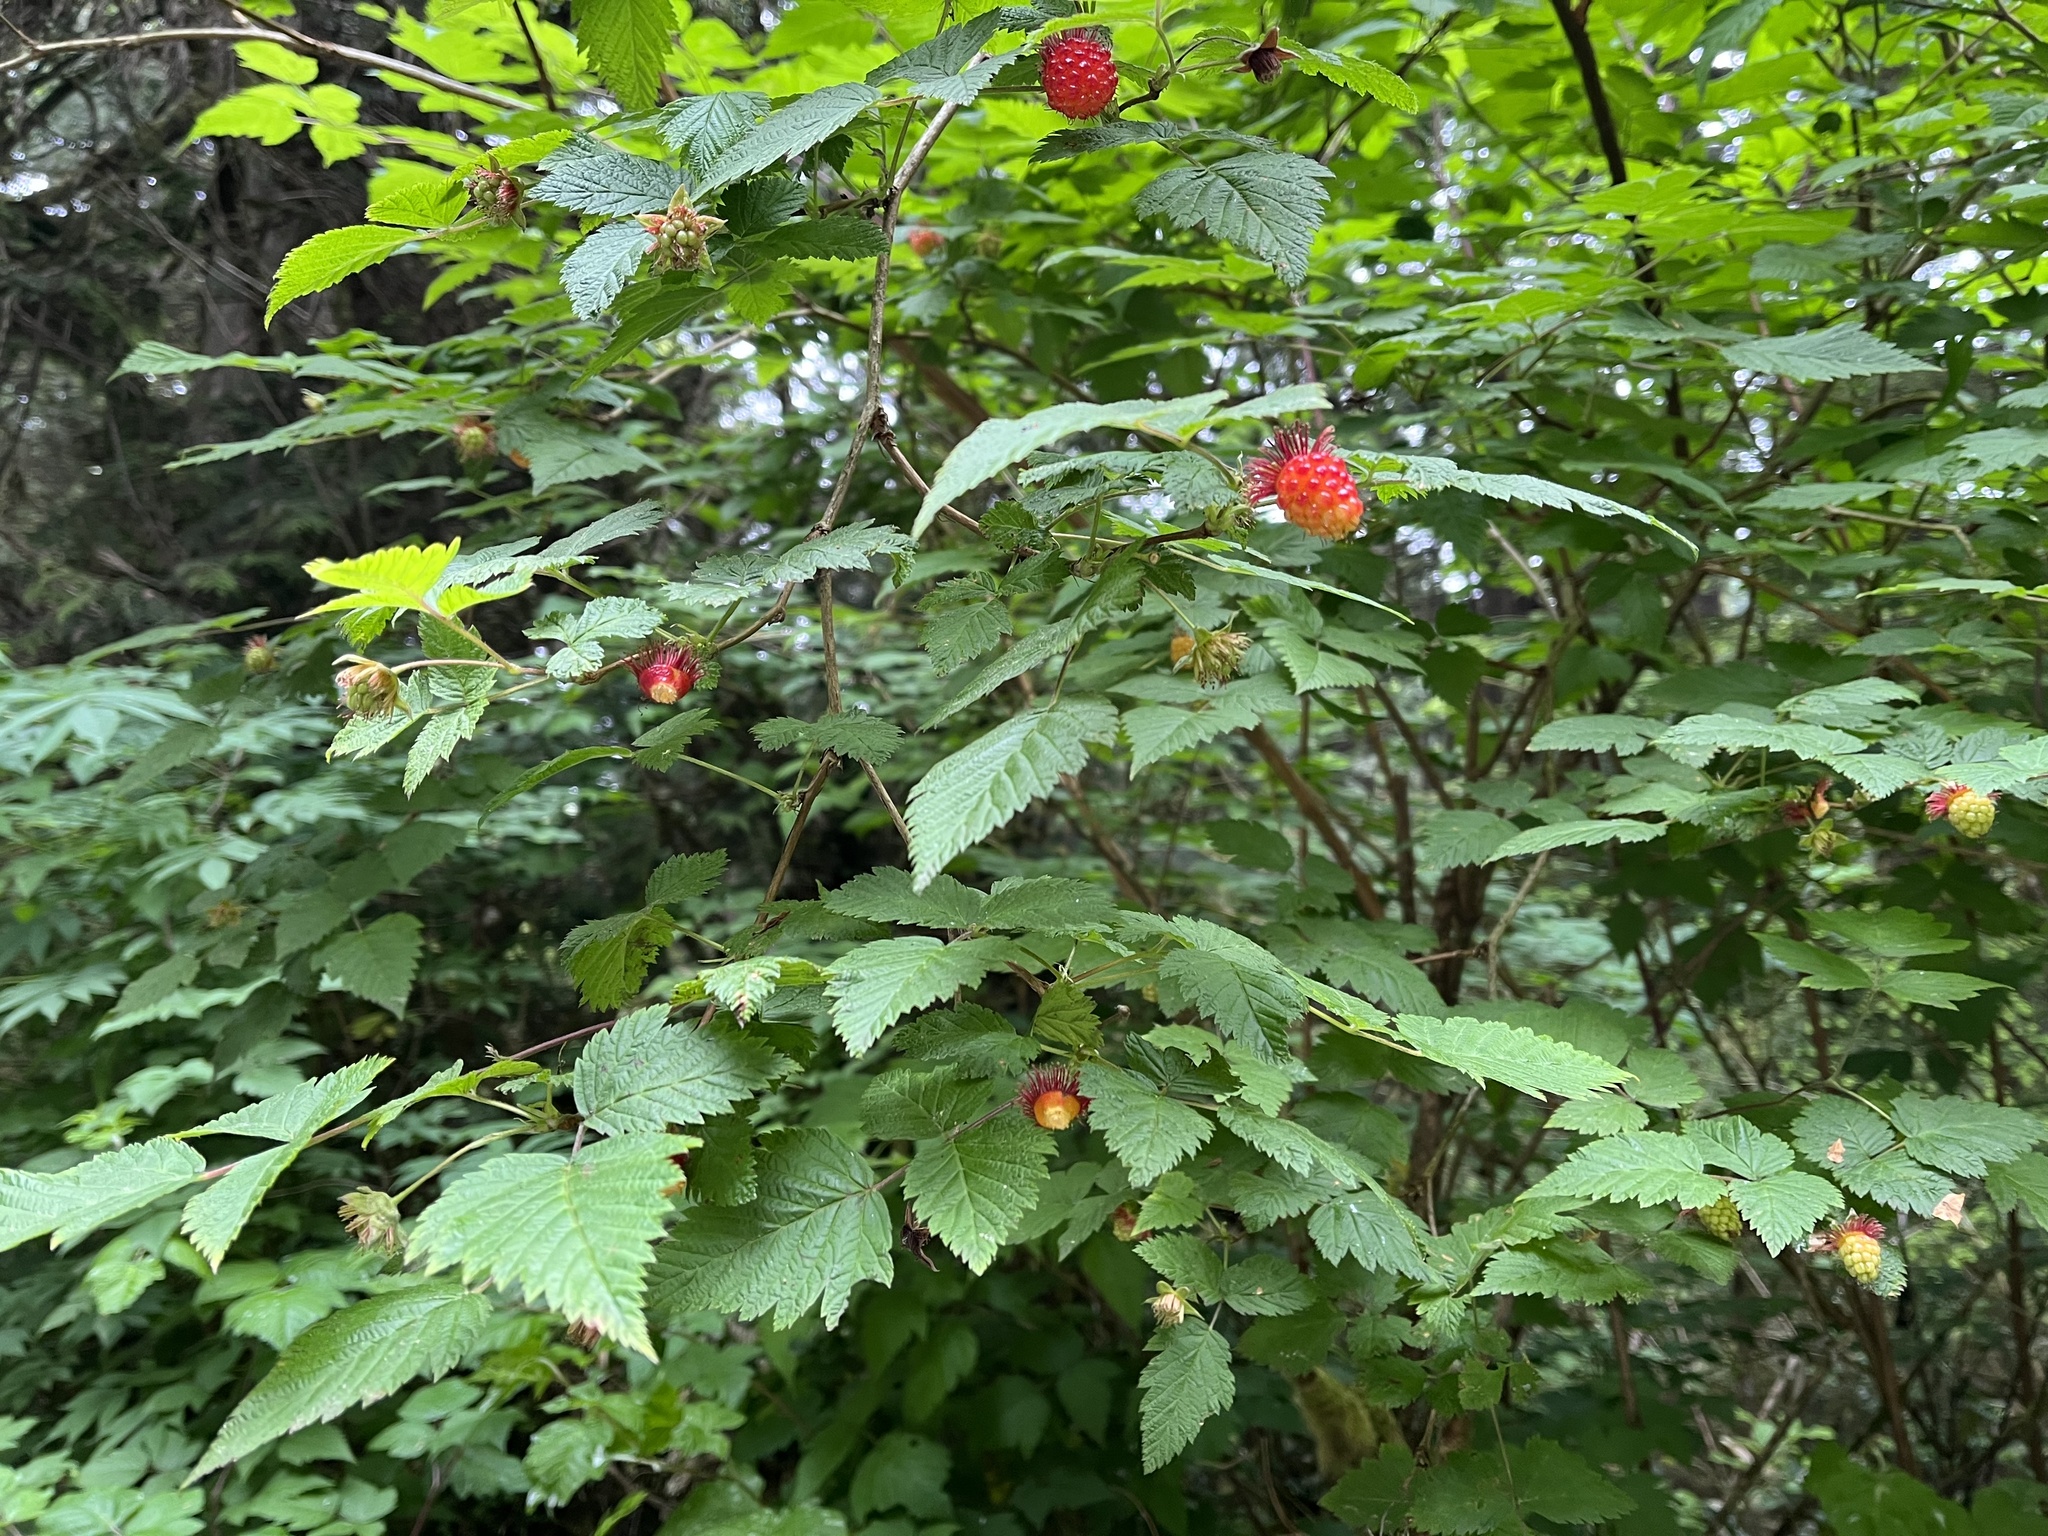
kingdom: Plantae
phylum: Tracheophyta
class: Magnoliopsida
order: Rosales
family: Rosaceae
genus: Rubus
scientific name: Rubus spectabilis
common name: Salmonberry
